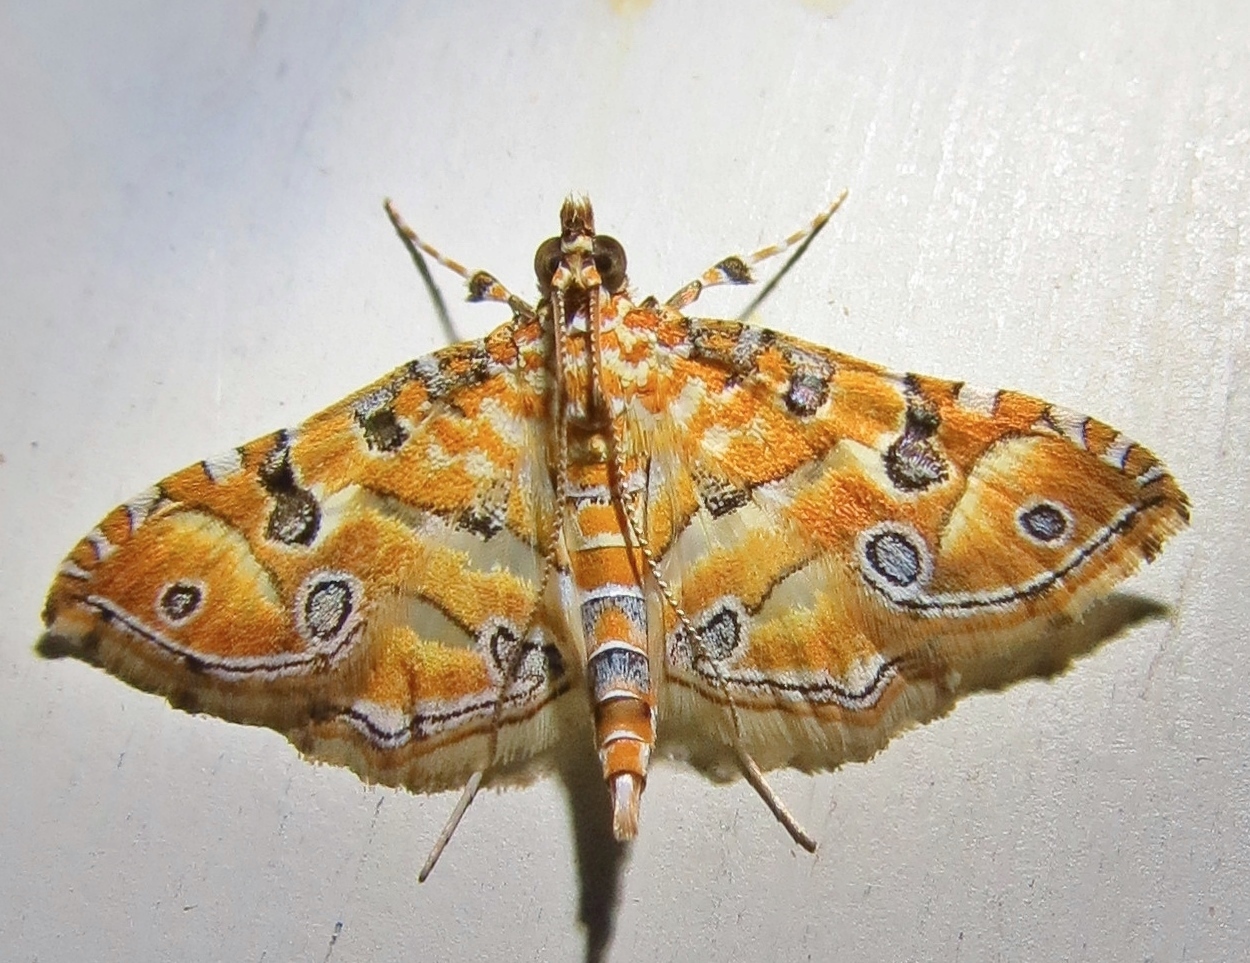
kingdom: Animalia
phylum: Arthropoda
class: Insecta
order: Lepidoptera
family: Crambidae
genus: Ommatospila
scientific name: Ommatospila narcaeusalis
